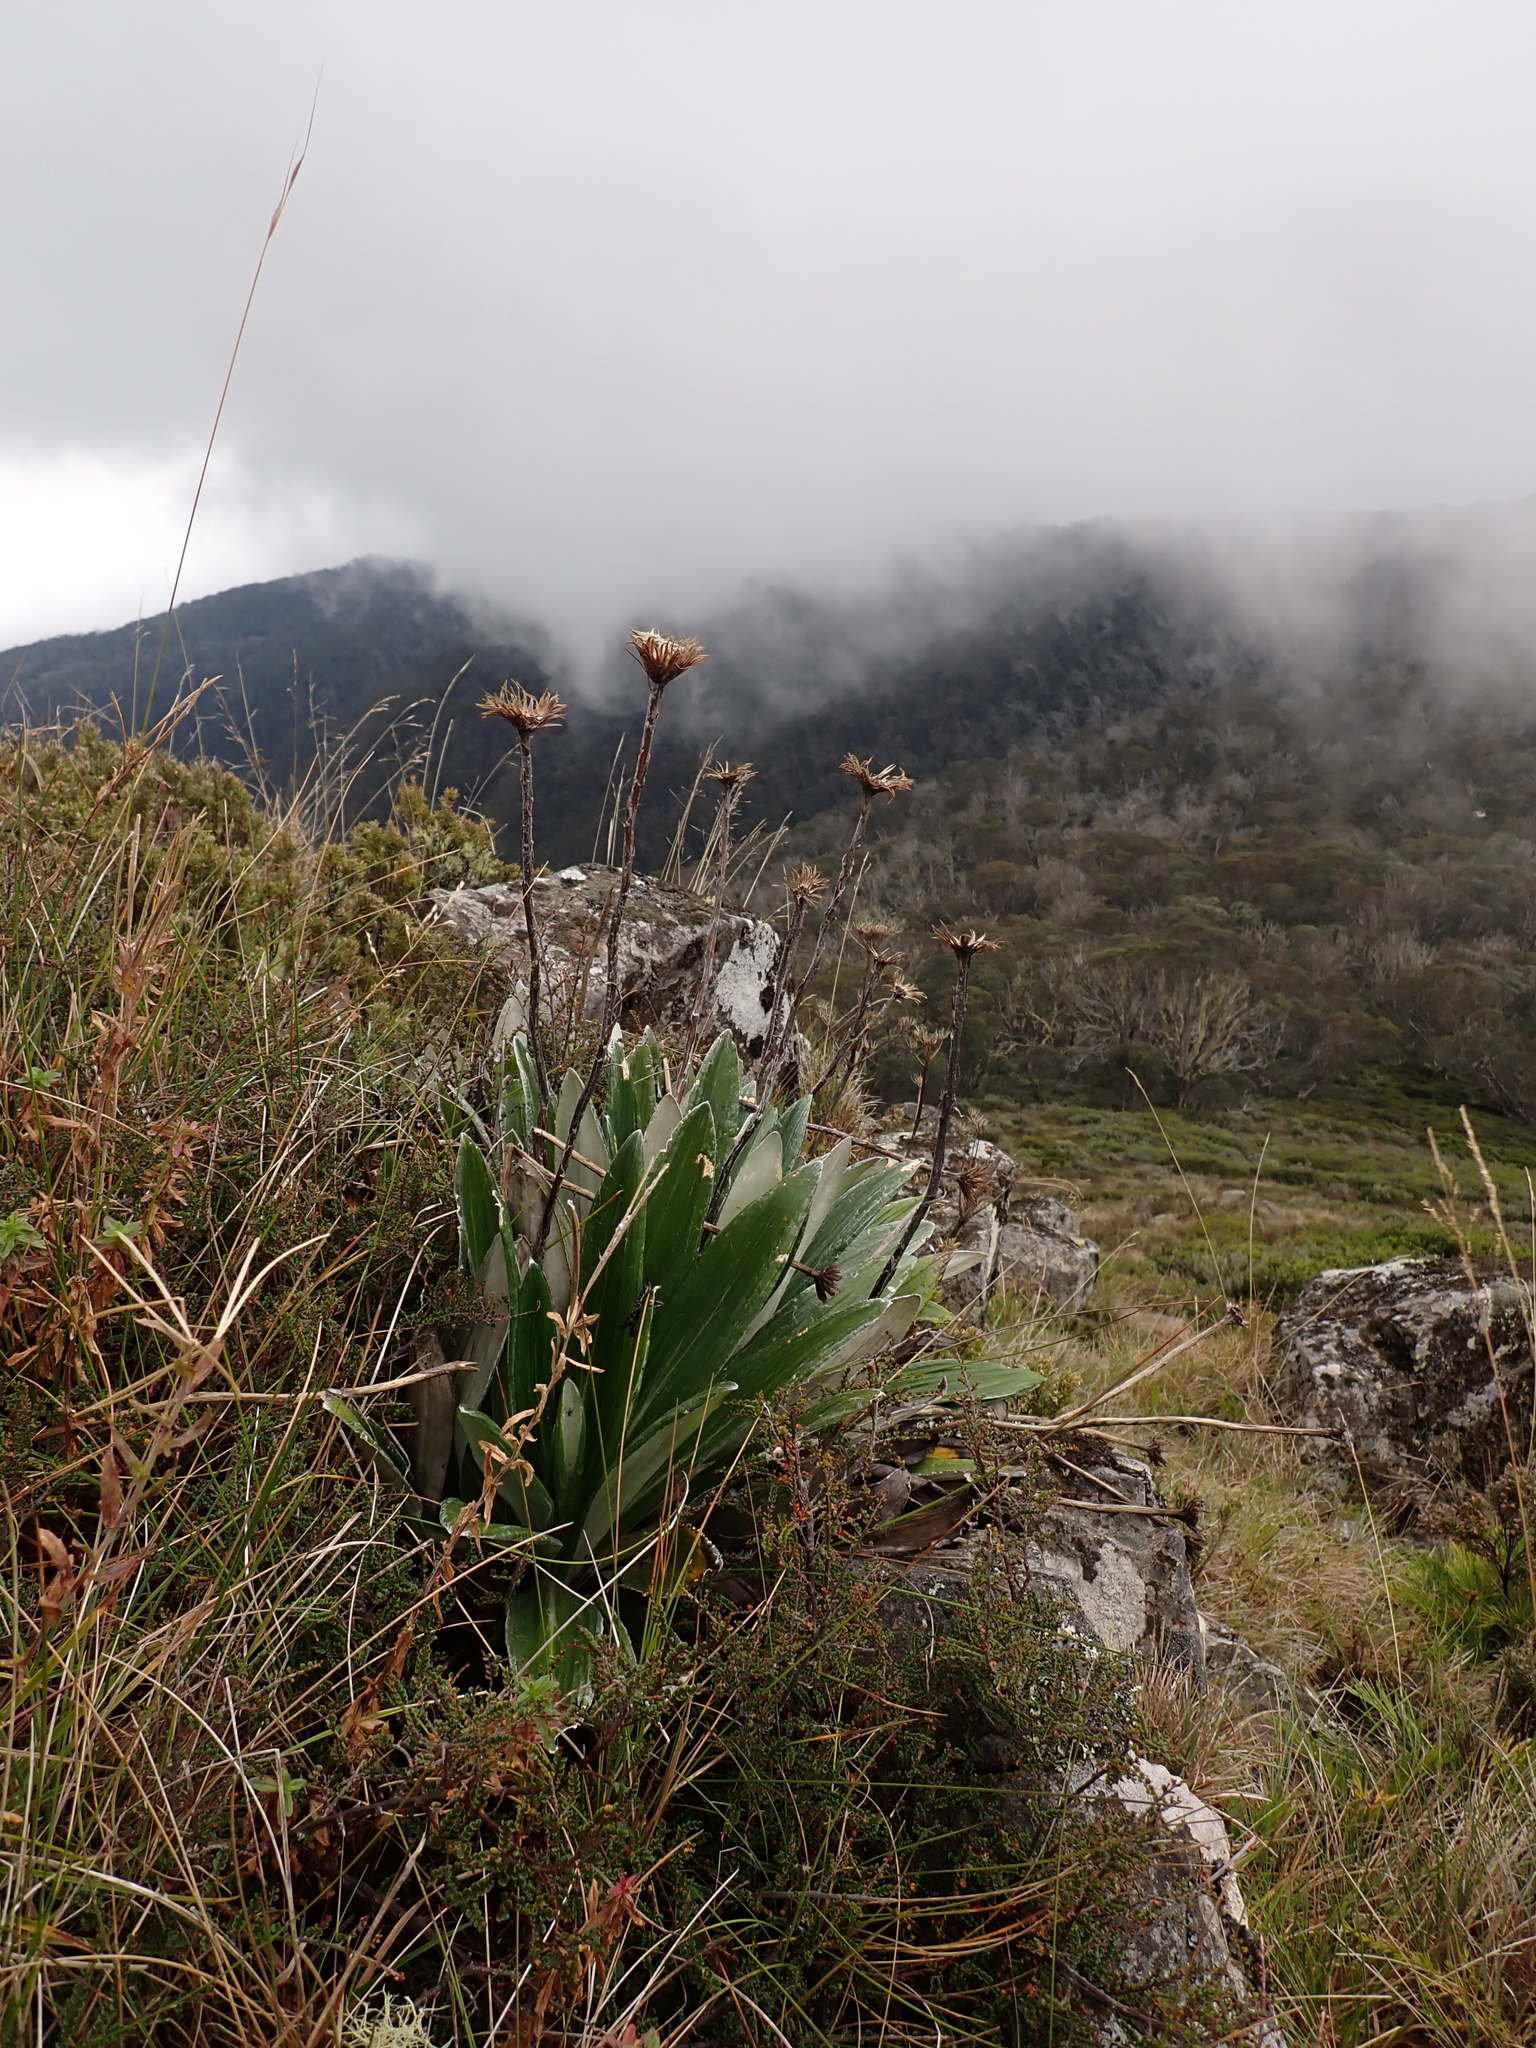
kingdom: Plantae
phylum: Tracheophyta
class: Magnoliopsida
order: Asterales
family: Asteraceae
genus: Celmisia
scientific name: Celmisia latifolia
